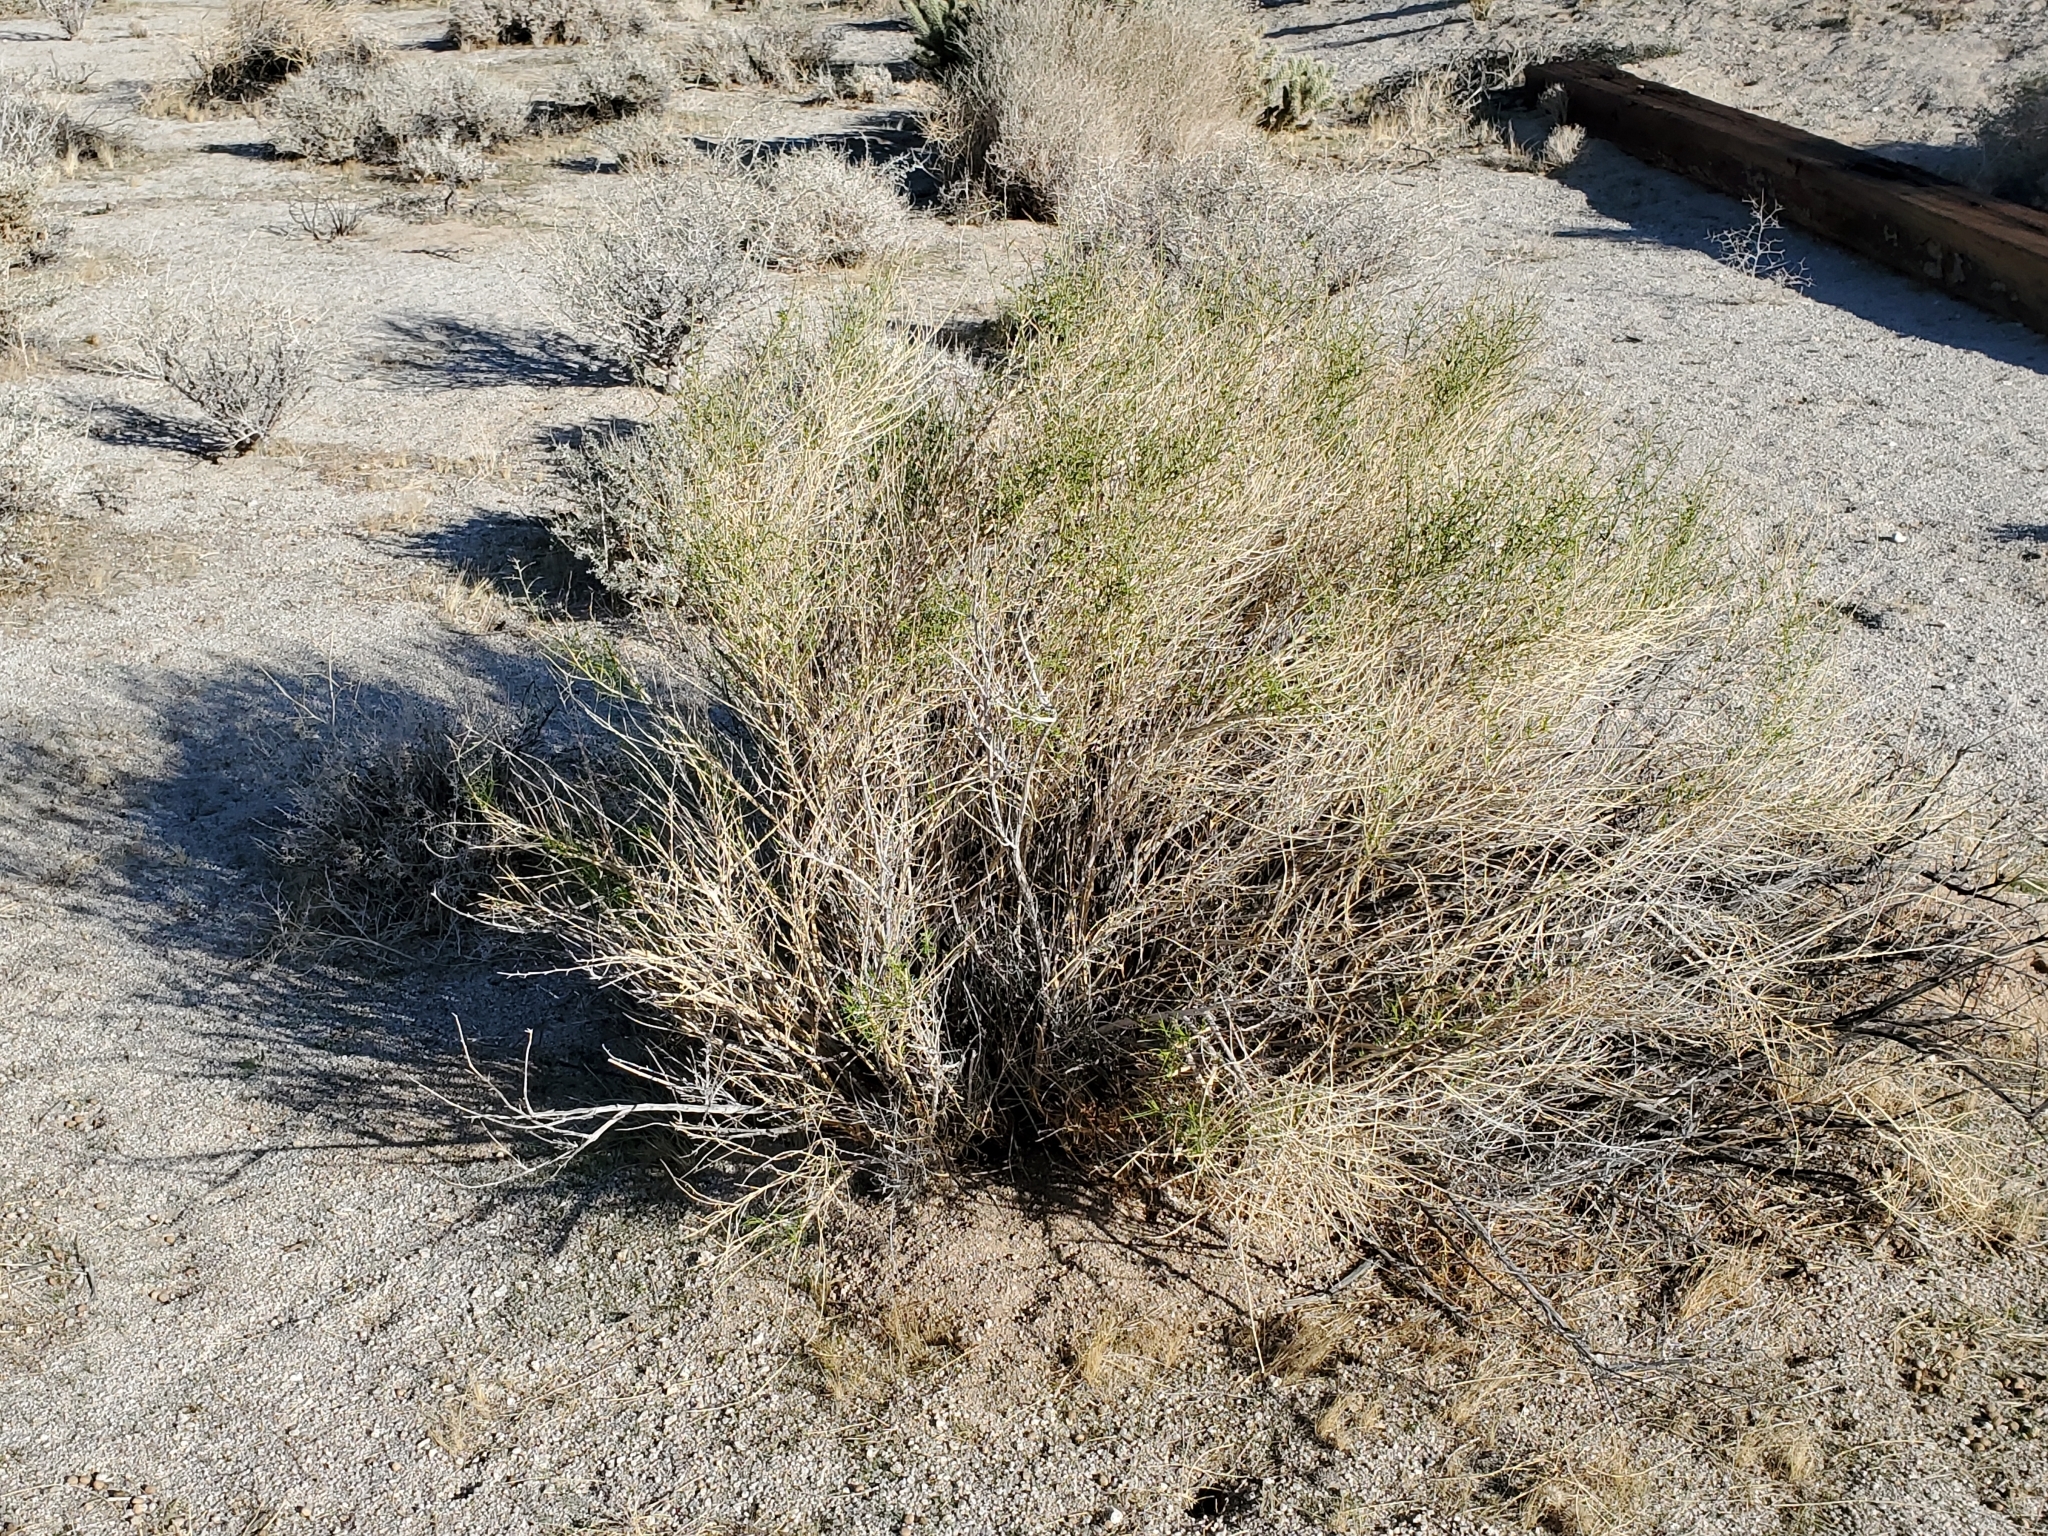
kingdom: Plantae
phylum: Tracheophyta
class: Magnoliopsida
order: Asterales
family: Asteraceae
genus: Ambrosia
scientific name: Ambrosia salsola
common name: Burrobrush
